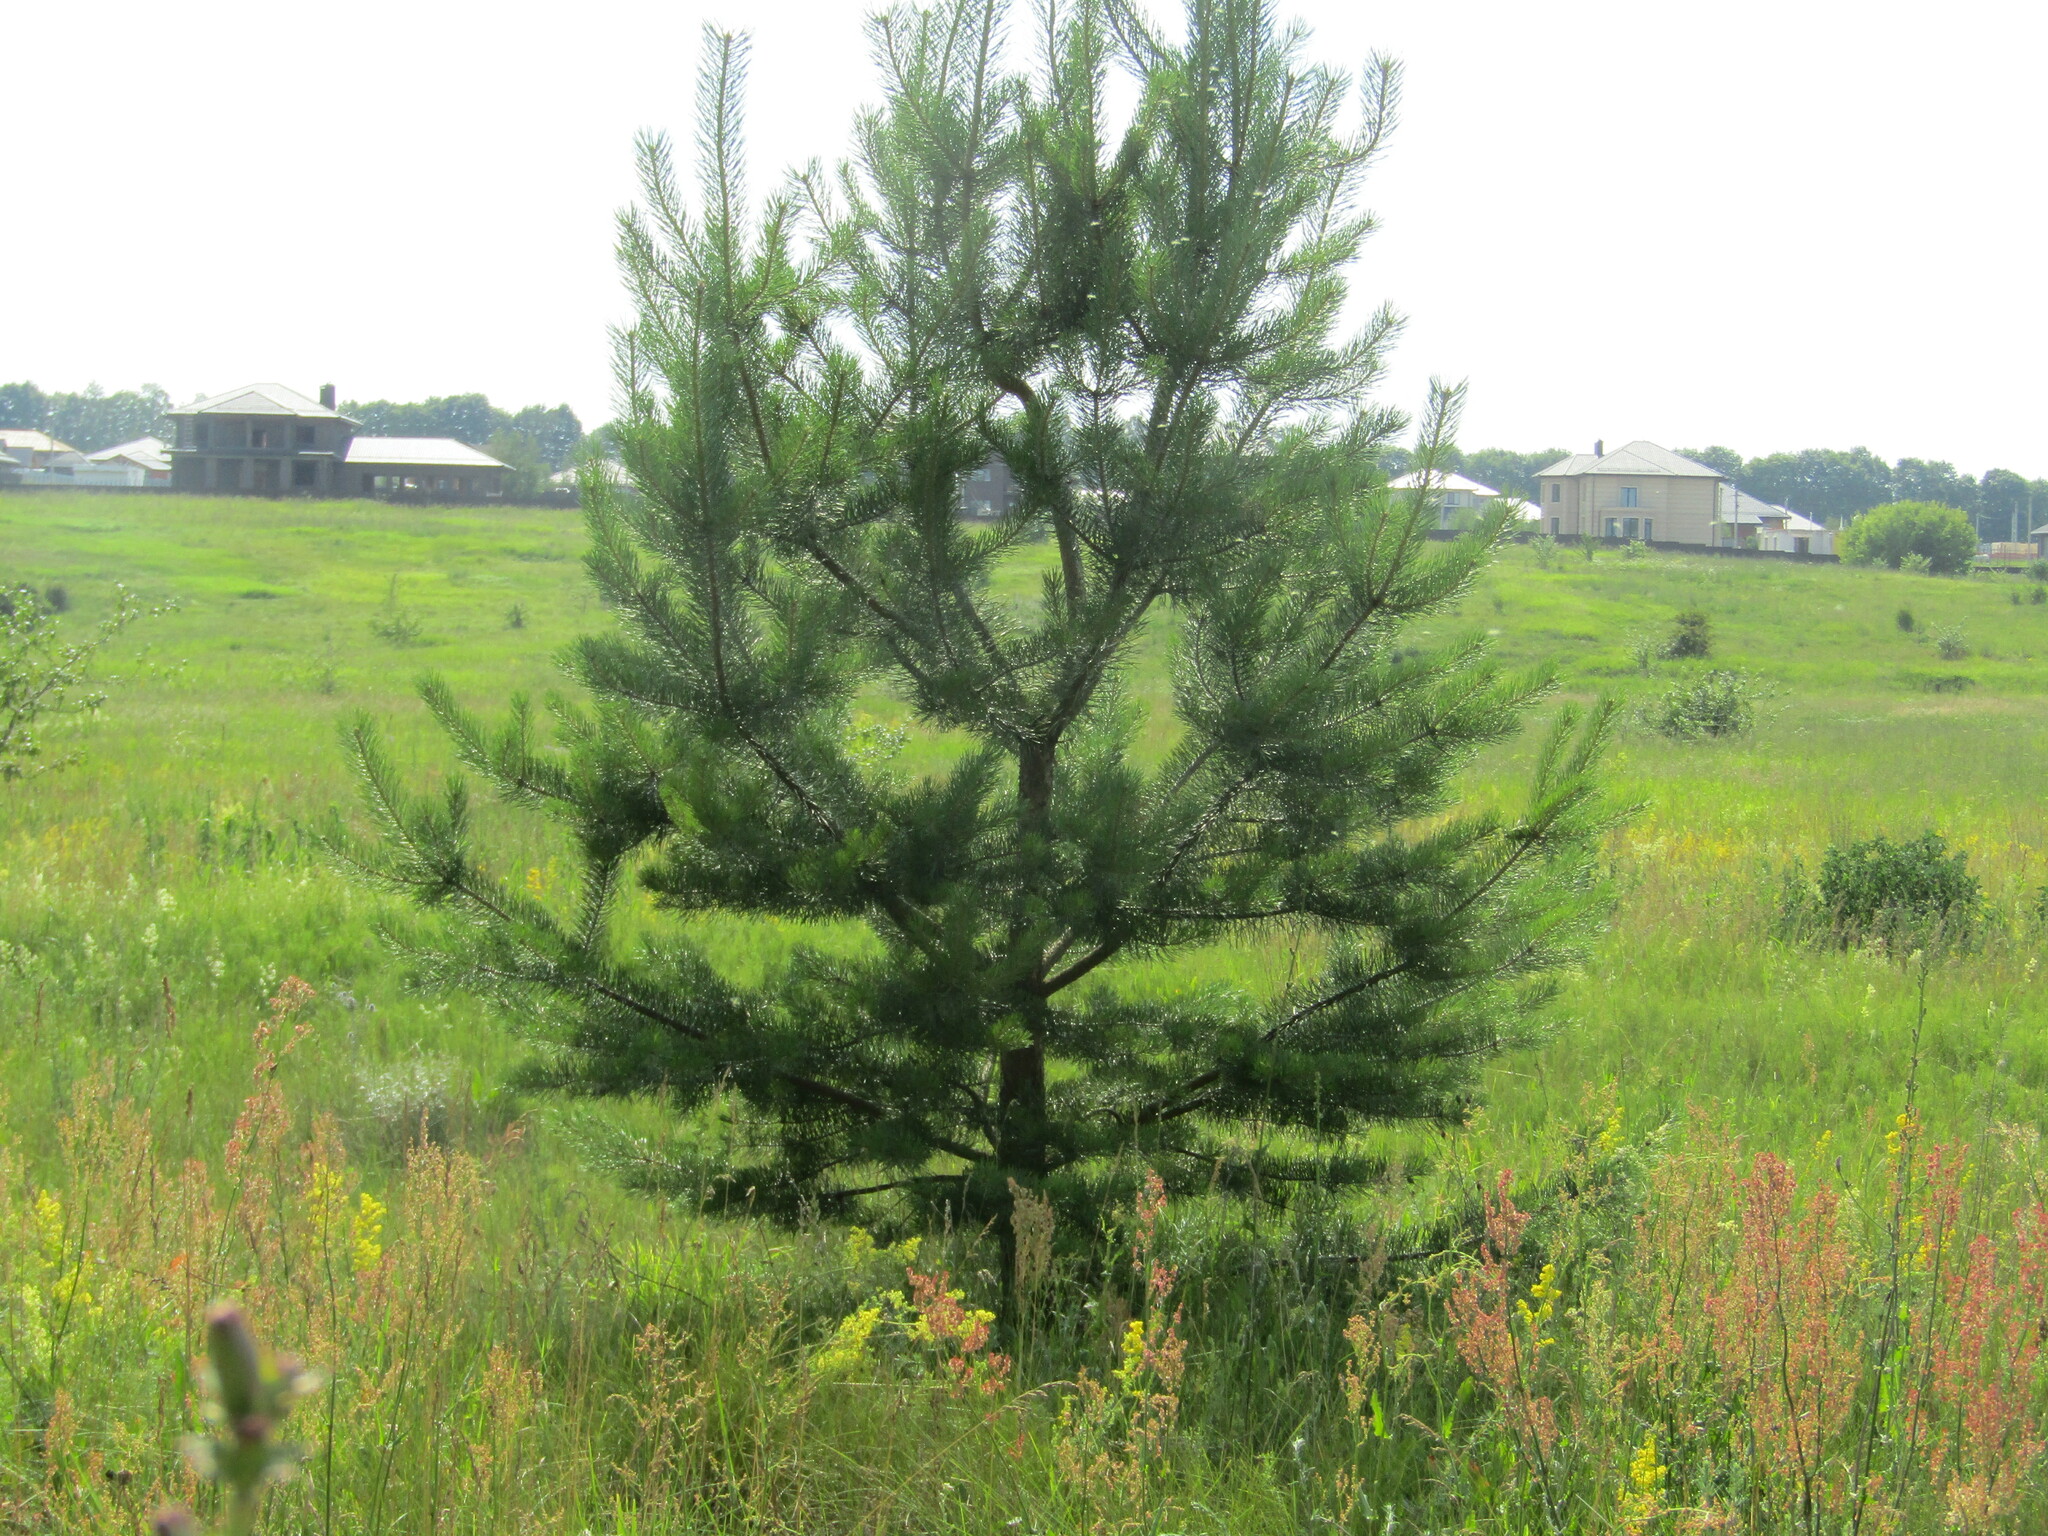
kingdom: Plantae
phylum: Tracheophyta
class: Pinopsida
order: Pinales
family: Pinaceae
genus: Pinus
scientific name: Pinus sylvestris
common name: Scots pine
